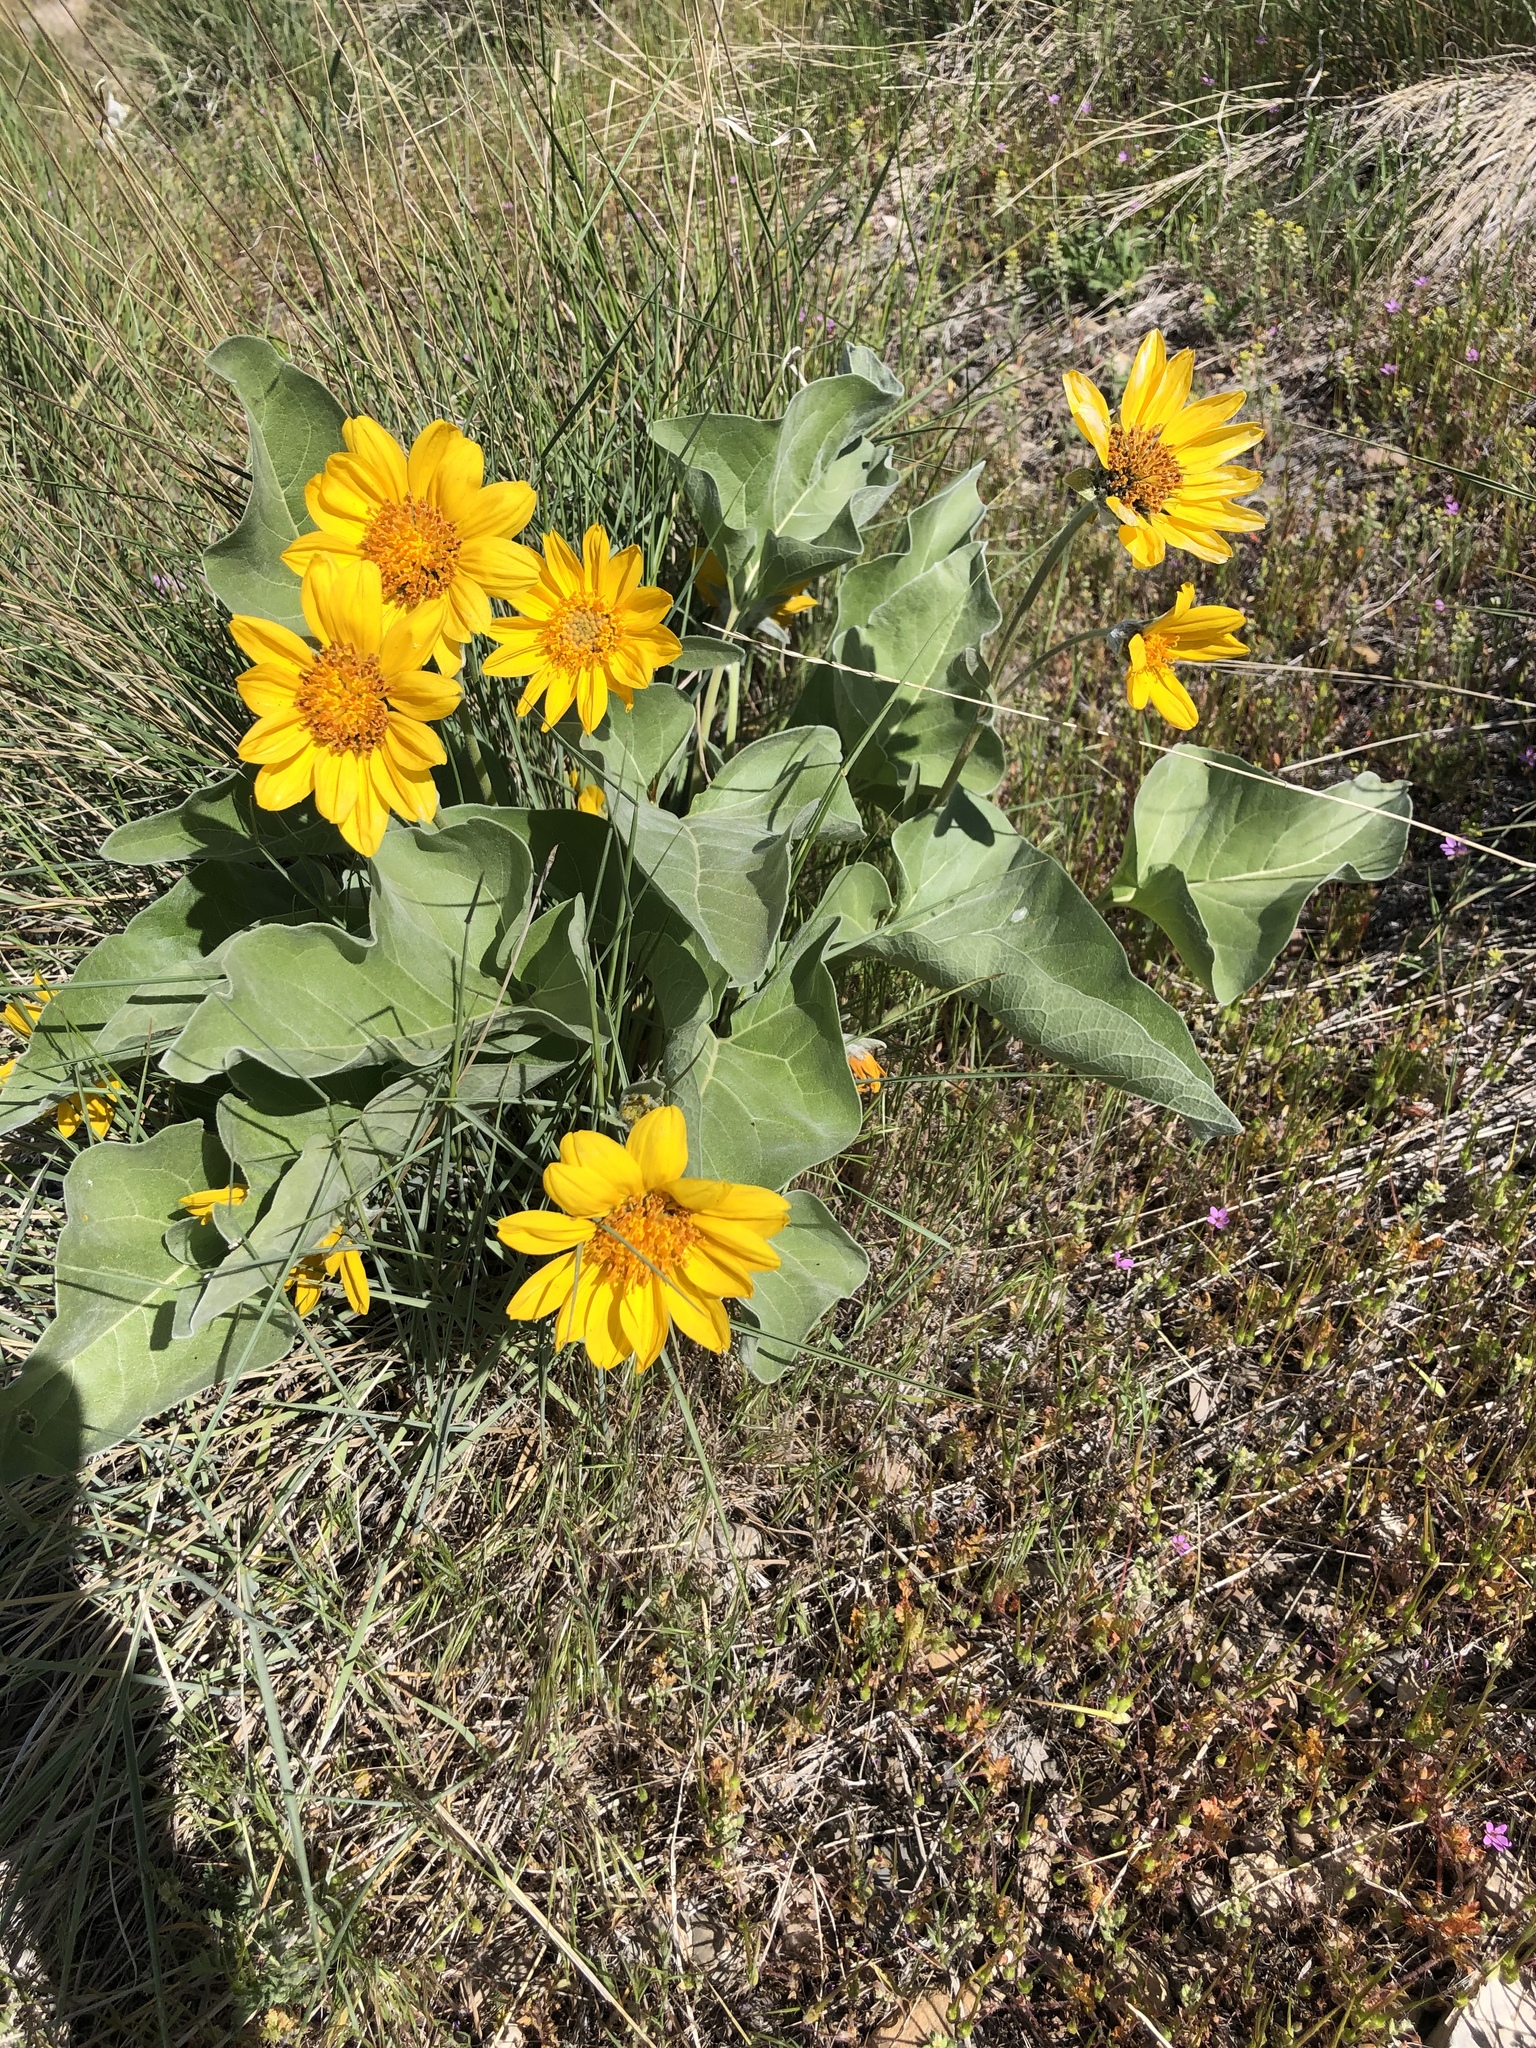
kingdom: Plantae
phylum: Tracheophyta
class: Magnoliopsida
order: Asterales
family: Asteraceae
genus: Wyethia
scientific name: Wyethia sagittata
